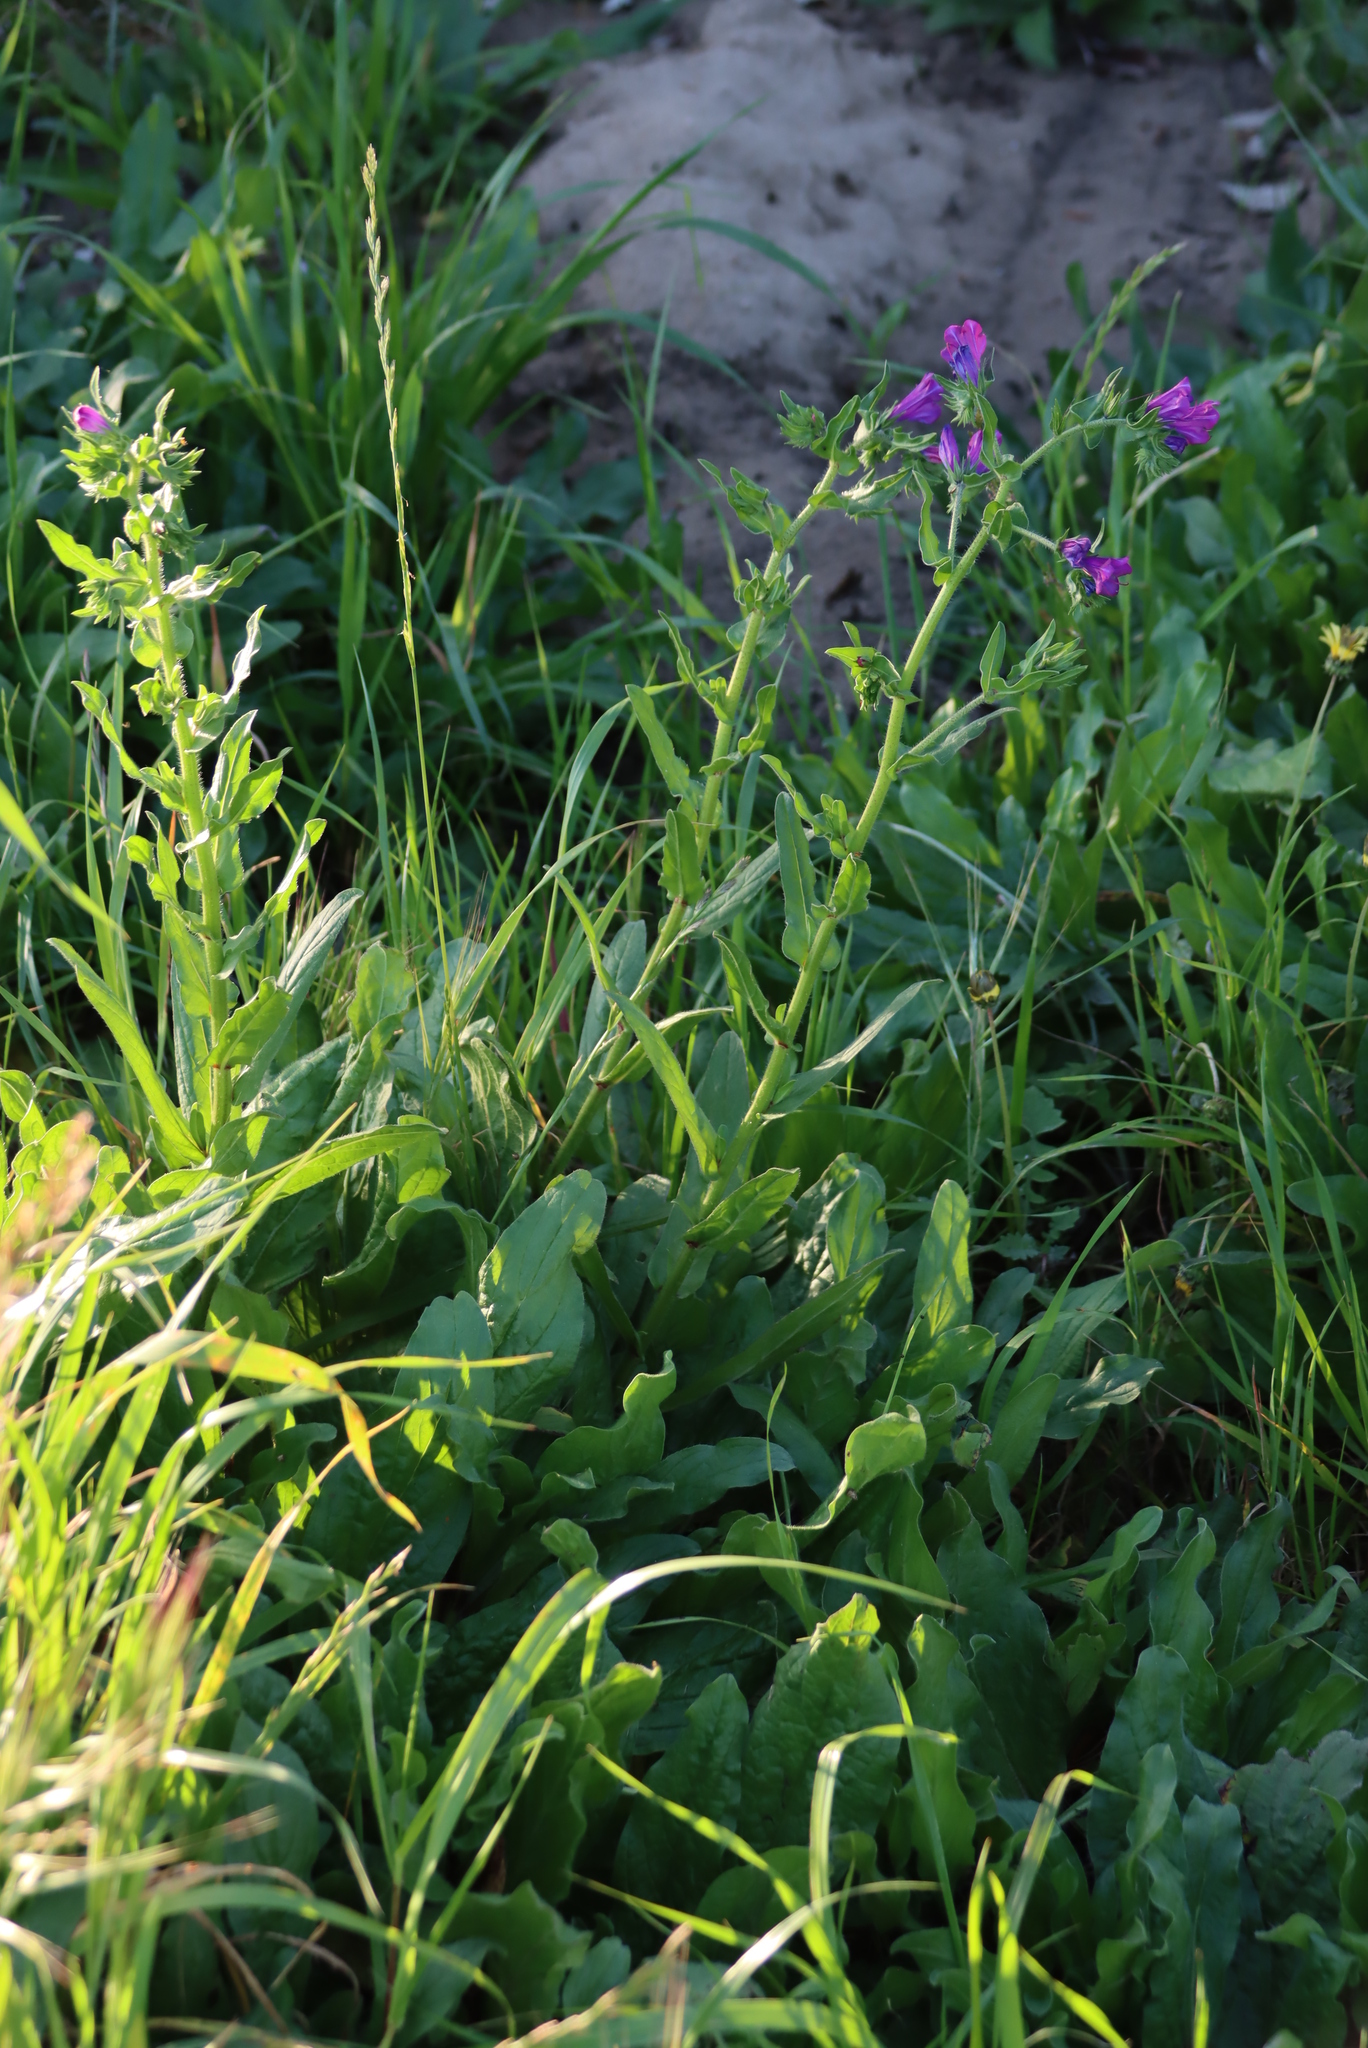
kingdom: Plantae
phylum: Tracheophyta
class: Magnoliopsida
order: Boraginales
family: Boraginaceae
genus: Echium
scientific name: Echium plantagineum
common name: Purple viper's-bugloss
